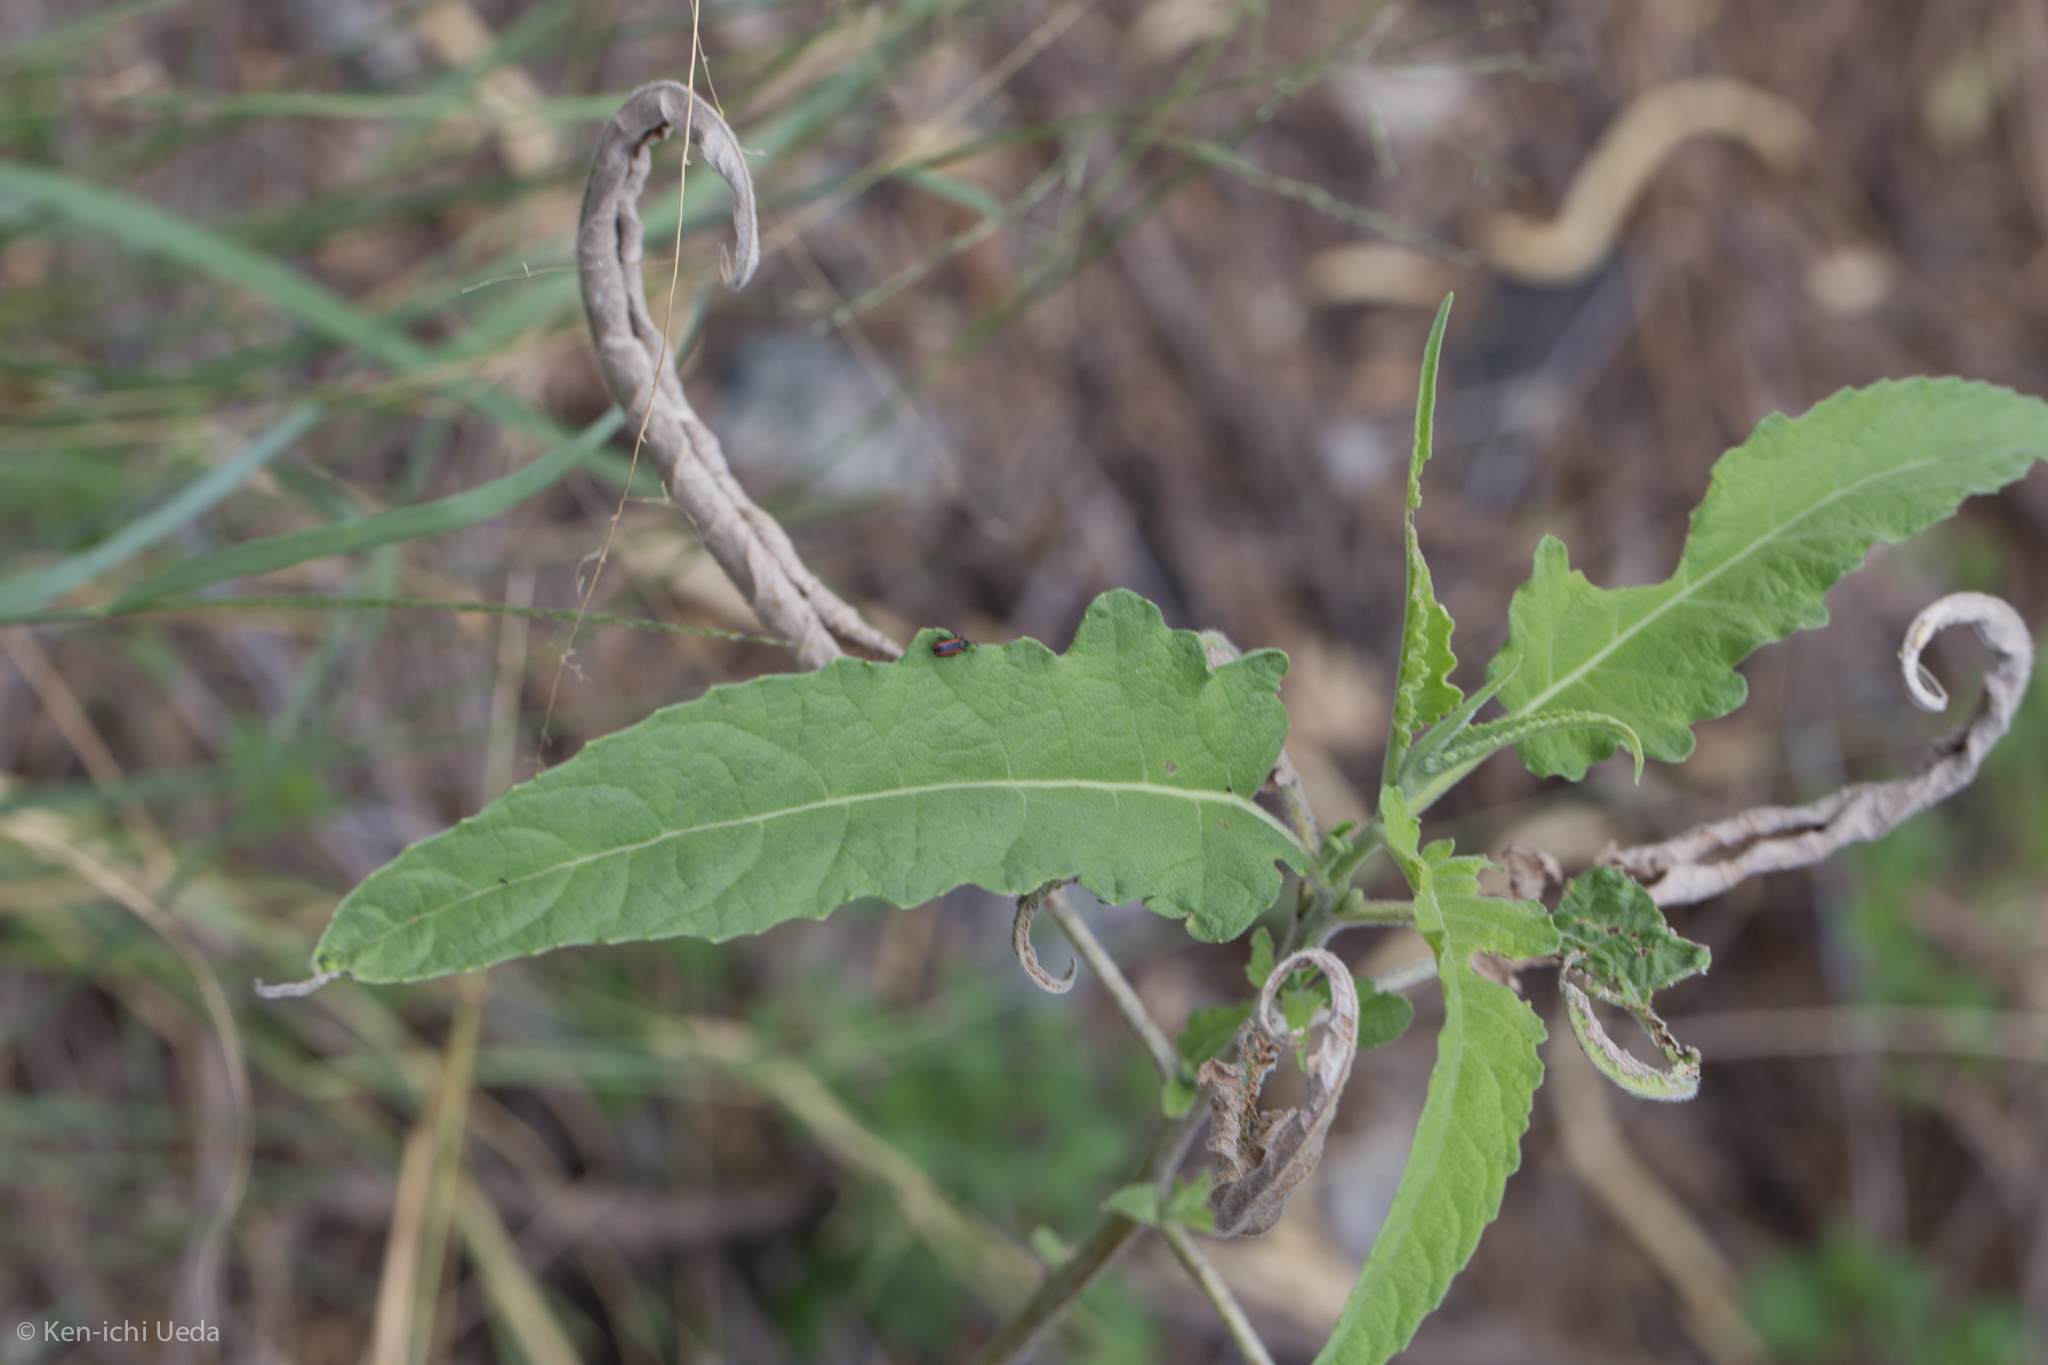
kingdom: Plantae
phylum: Tracheophyta
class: Magnoliopsida
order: Asterales
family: Asteraceae
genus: Ambrosia
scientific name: Ambrosia ambrosioides
